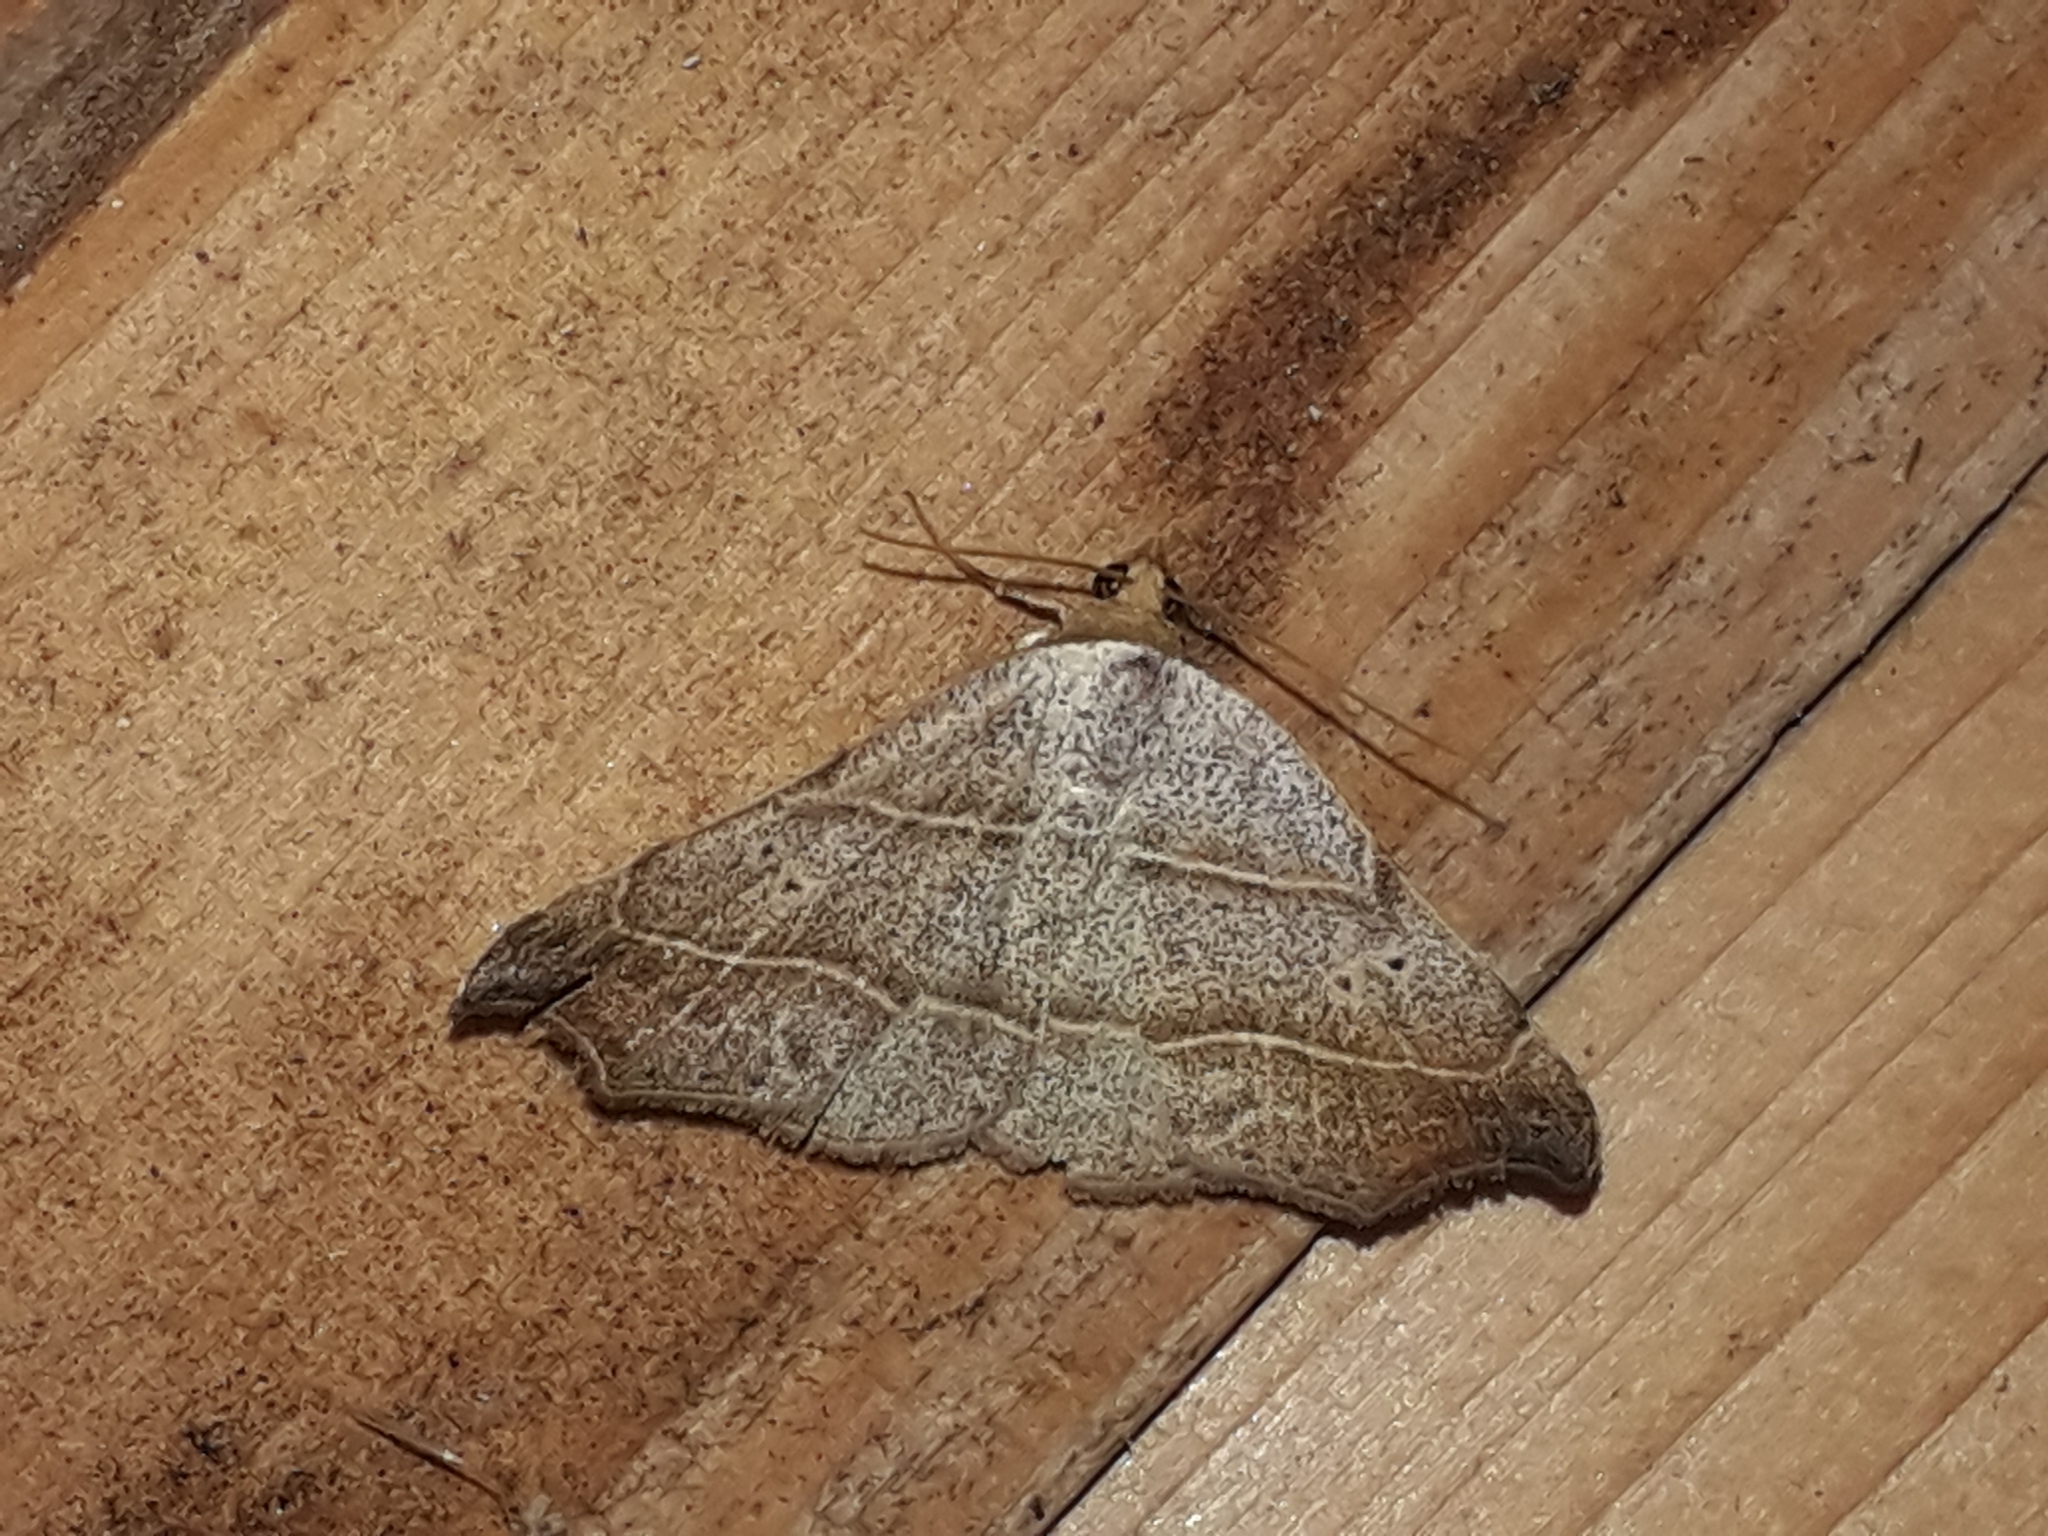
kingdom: Animalia
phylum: Arthropoda
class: Insecta
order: Lepidoptera
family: Erebidae
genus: Laspeyria
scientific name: Laspeyria flexula
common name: Beautiful hook-tip
